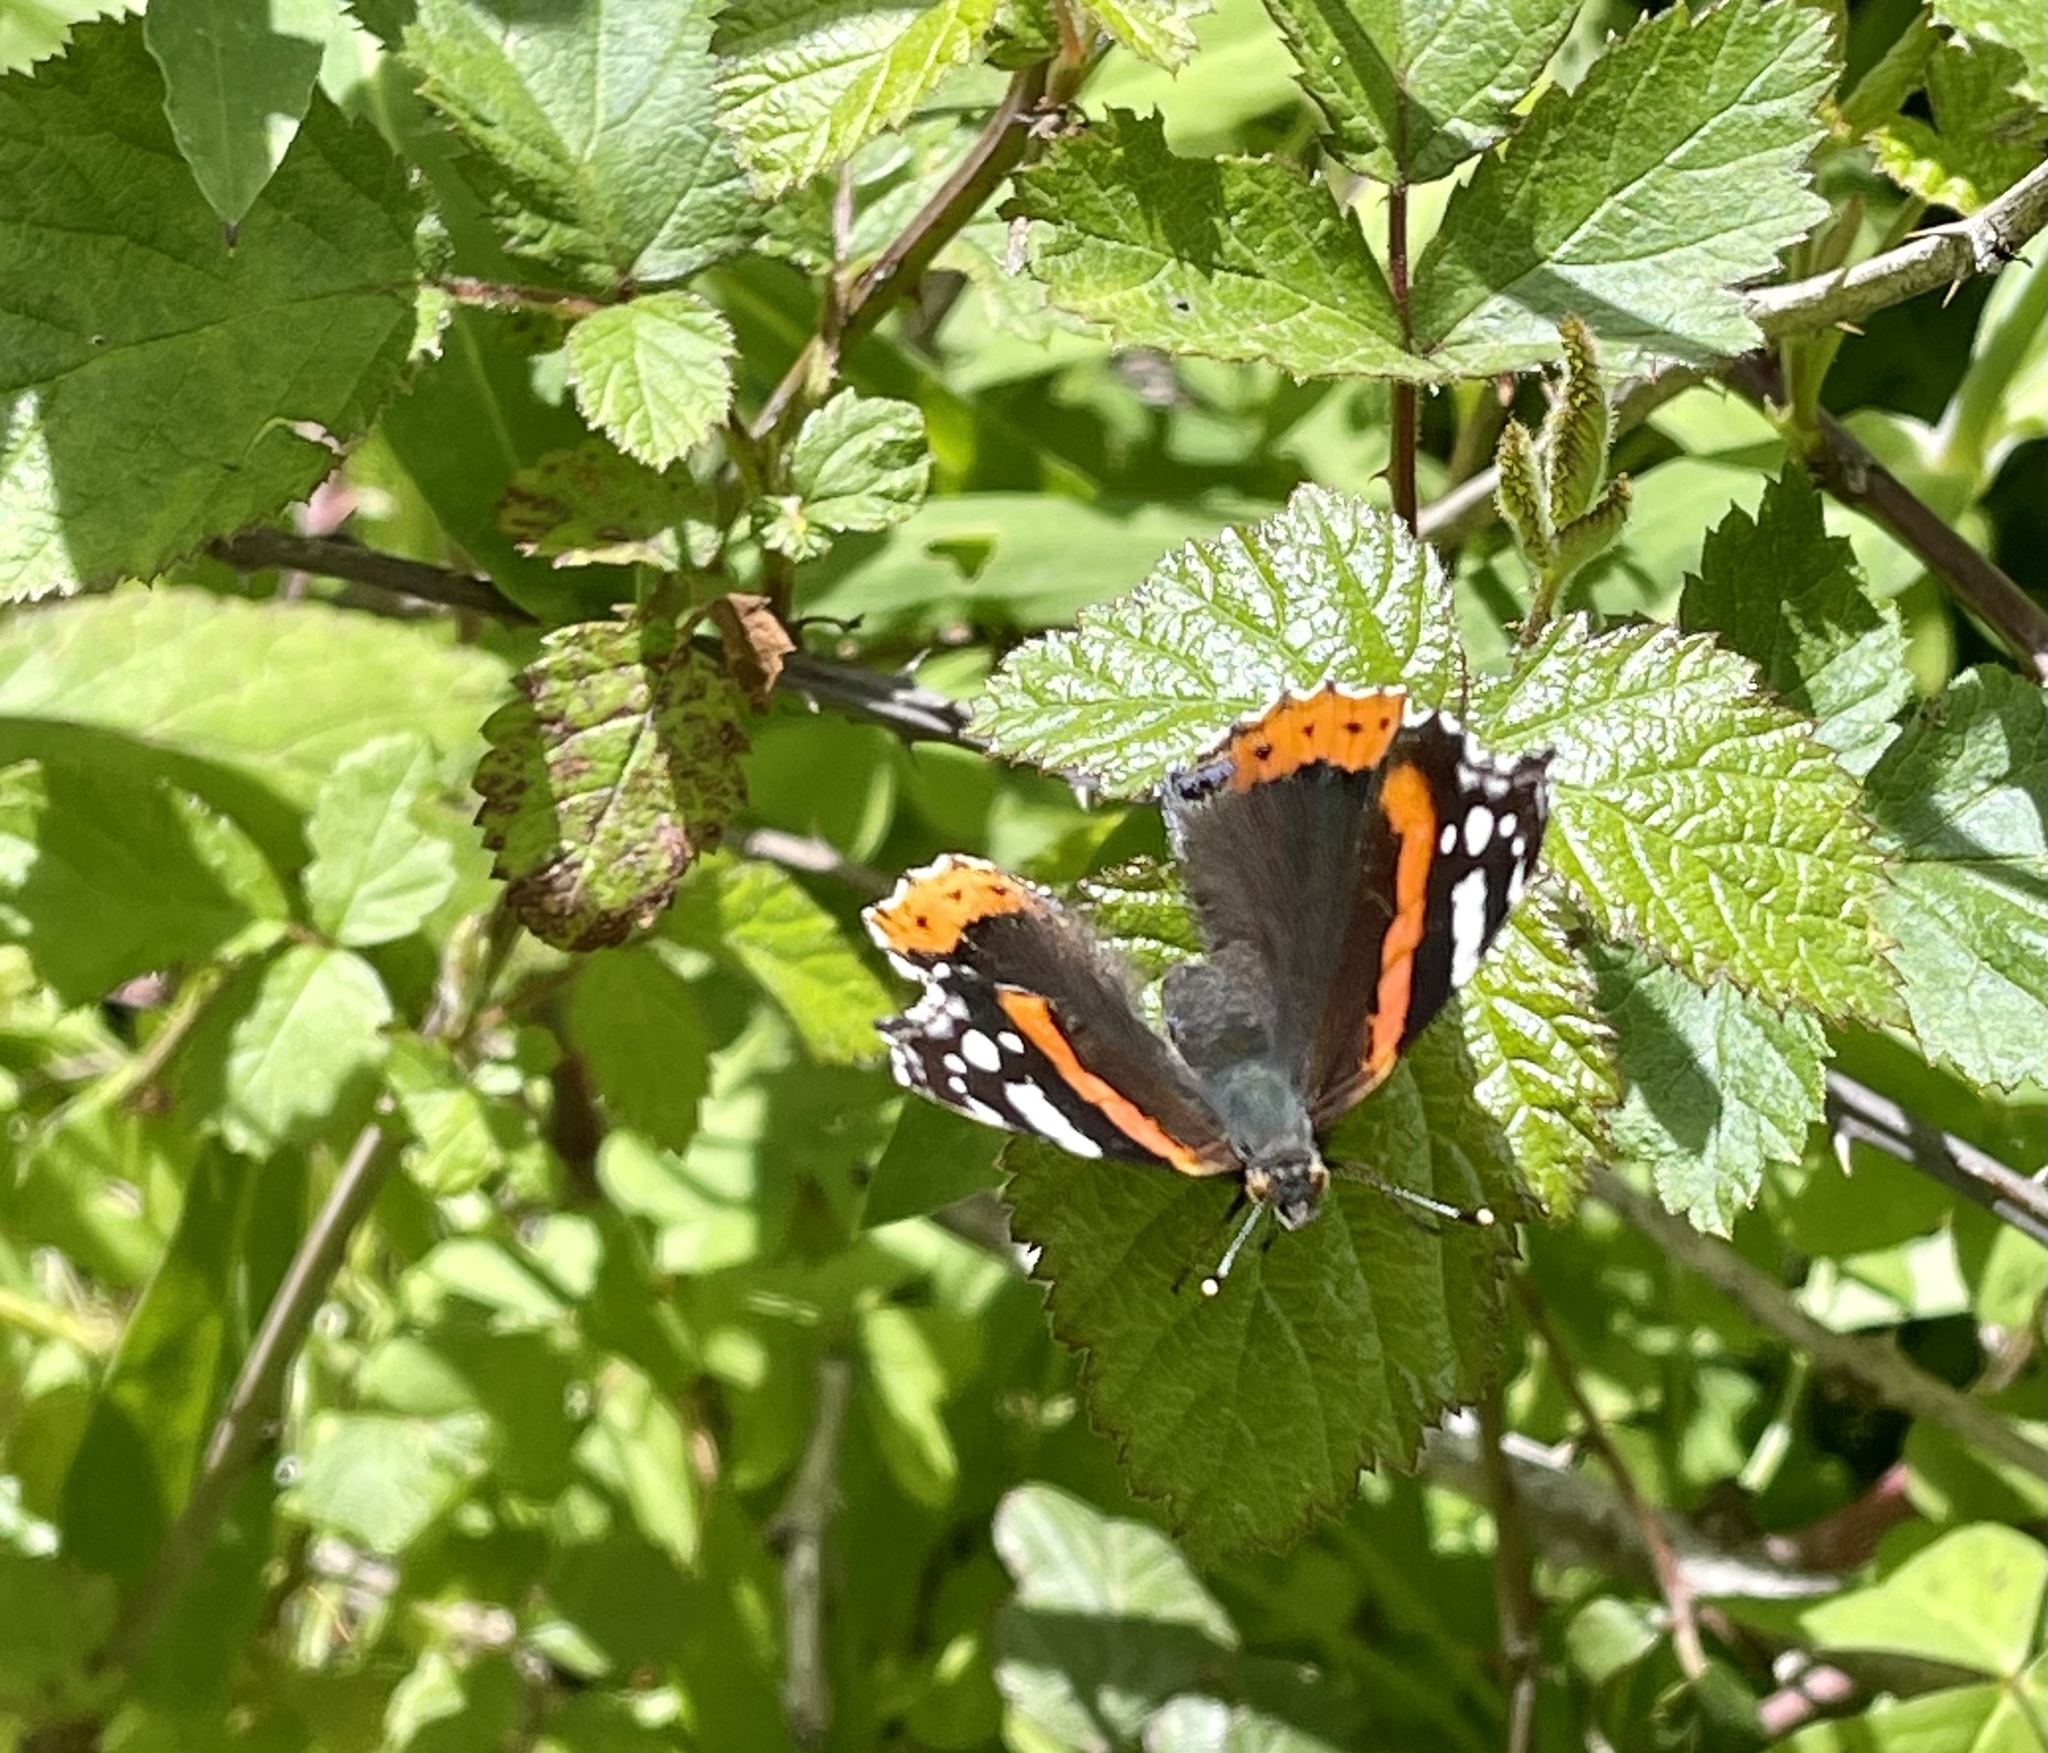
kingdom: Animalia
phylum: Arthropoda
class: Insecta
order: Lepidoptera
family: Nymphalidae
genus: Vanessa
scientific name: Vanessa atalanta
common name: Red admiral
